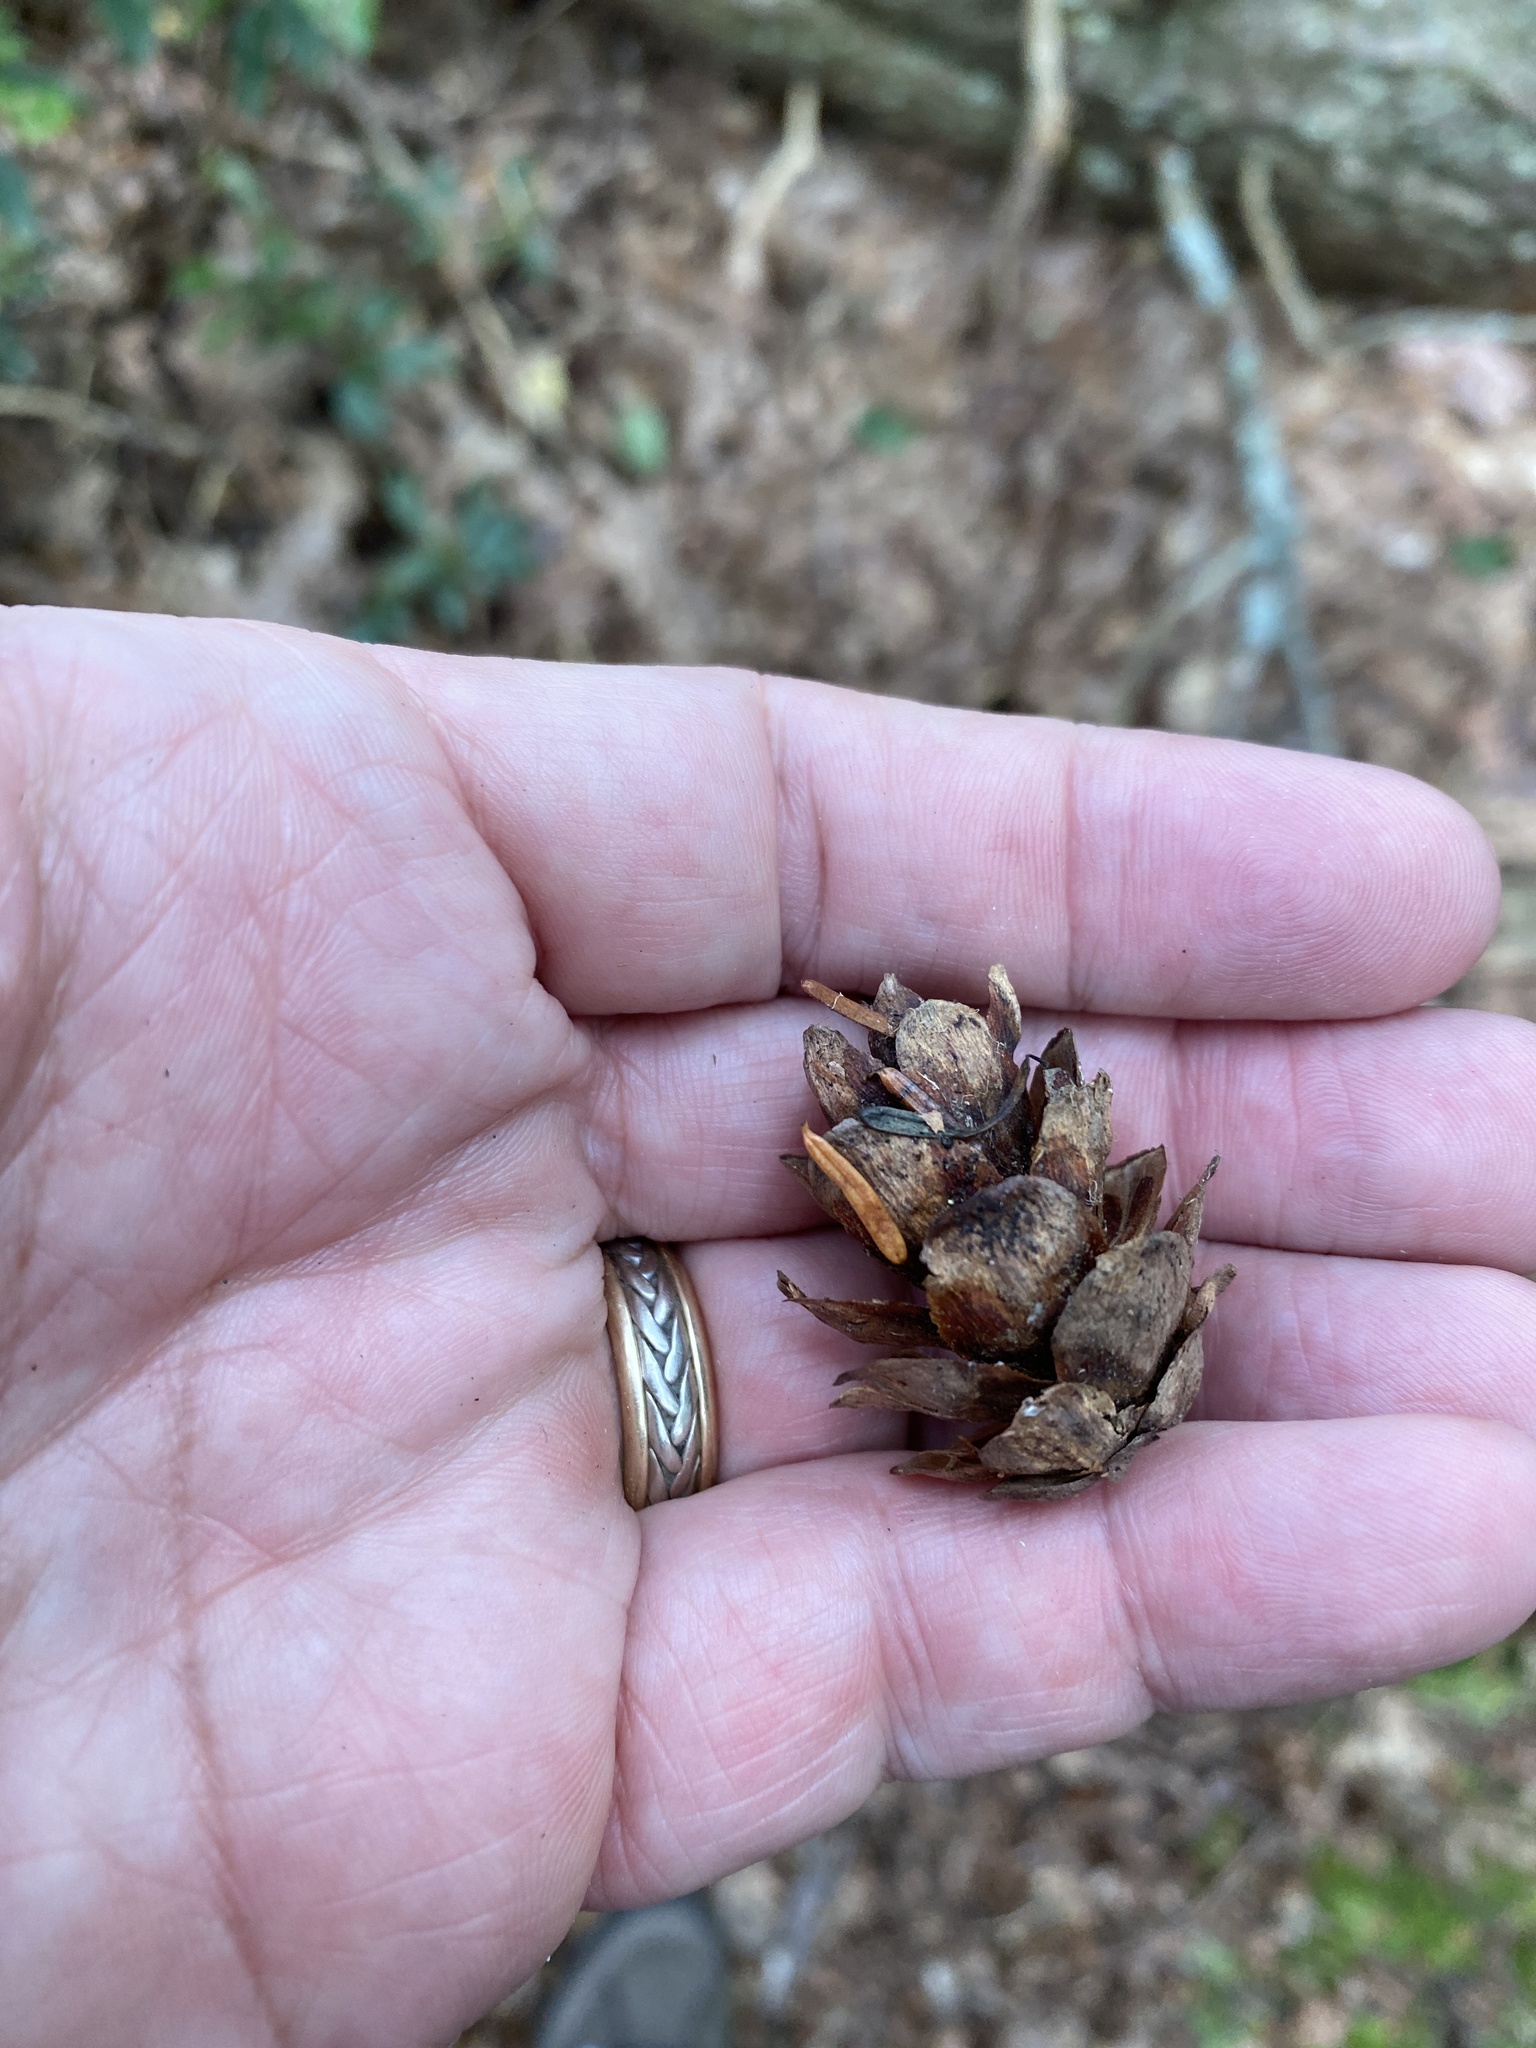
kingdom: Plantae
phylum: Tracheophyta
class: Pinopsida
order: Pinales
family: Pinaceae
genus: Tsuga
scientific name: Tsuga caroliniana
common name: Carolina hemlock
